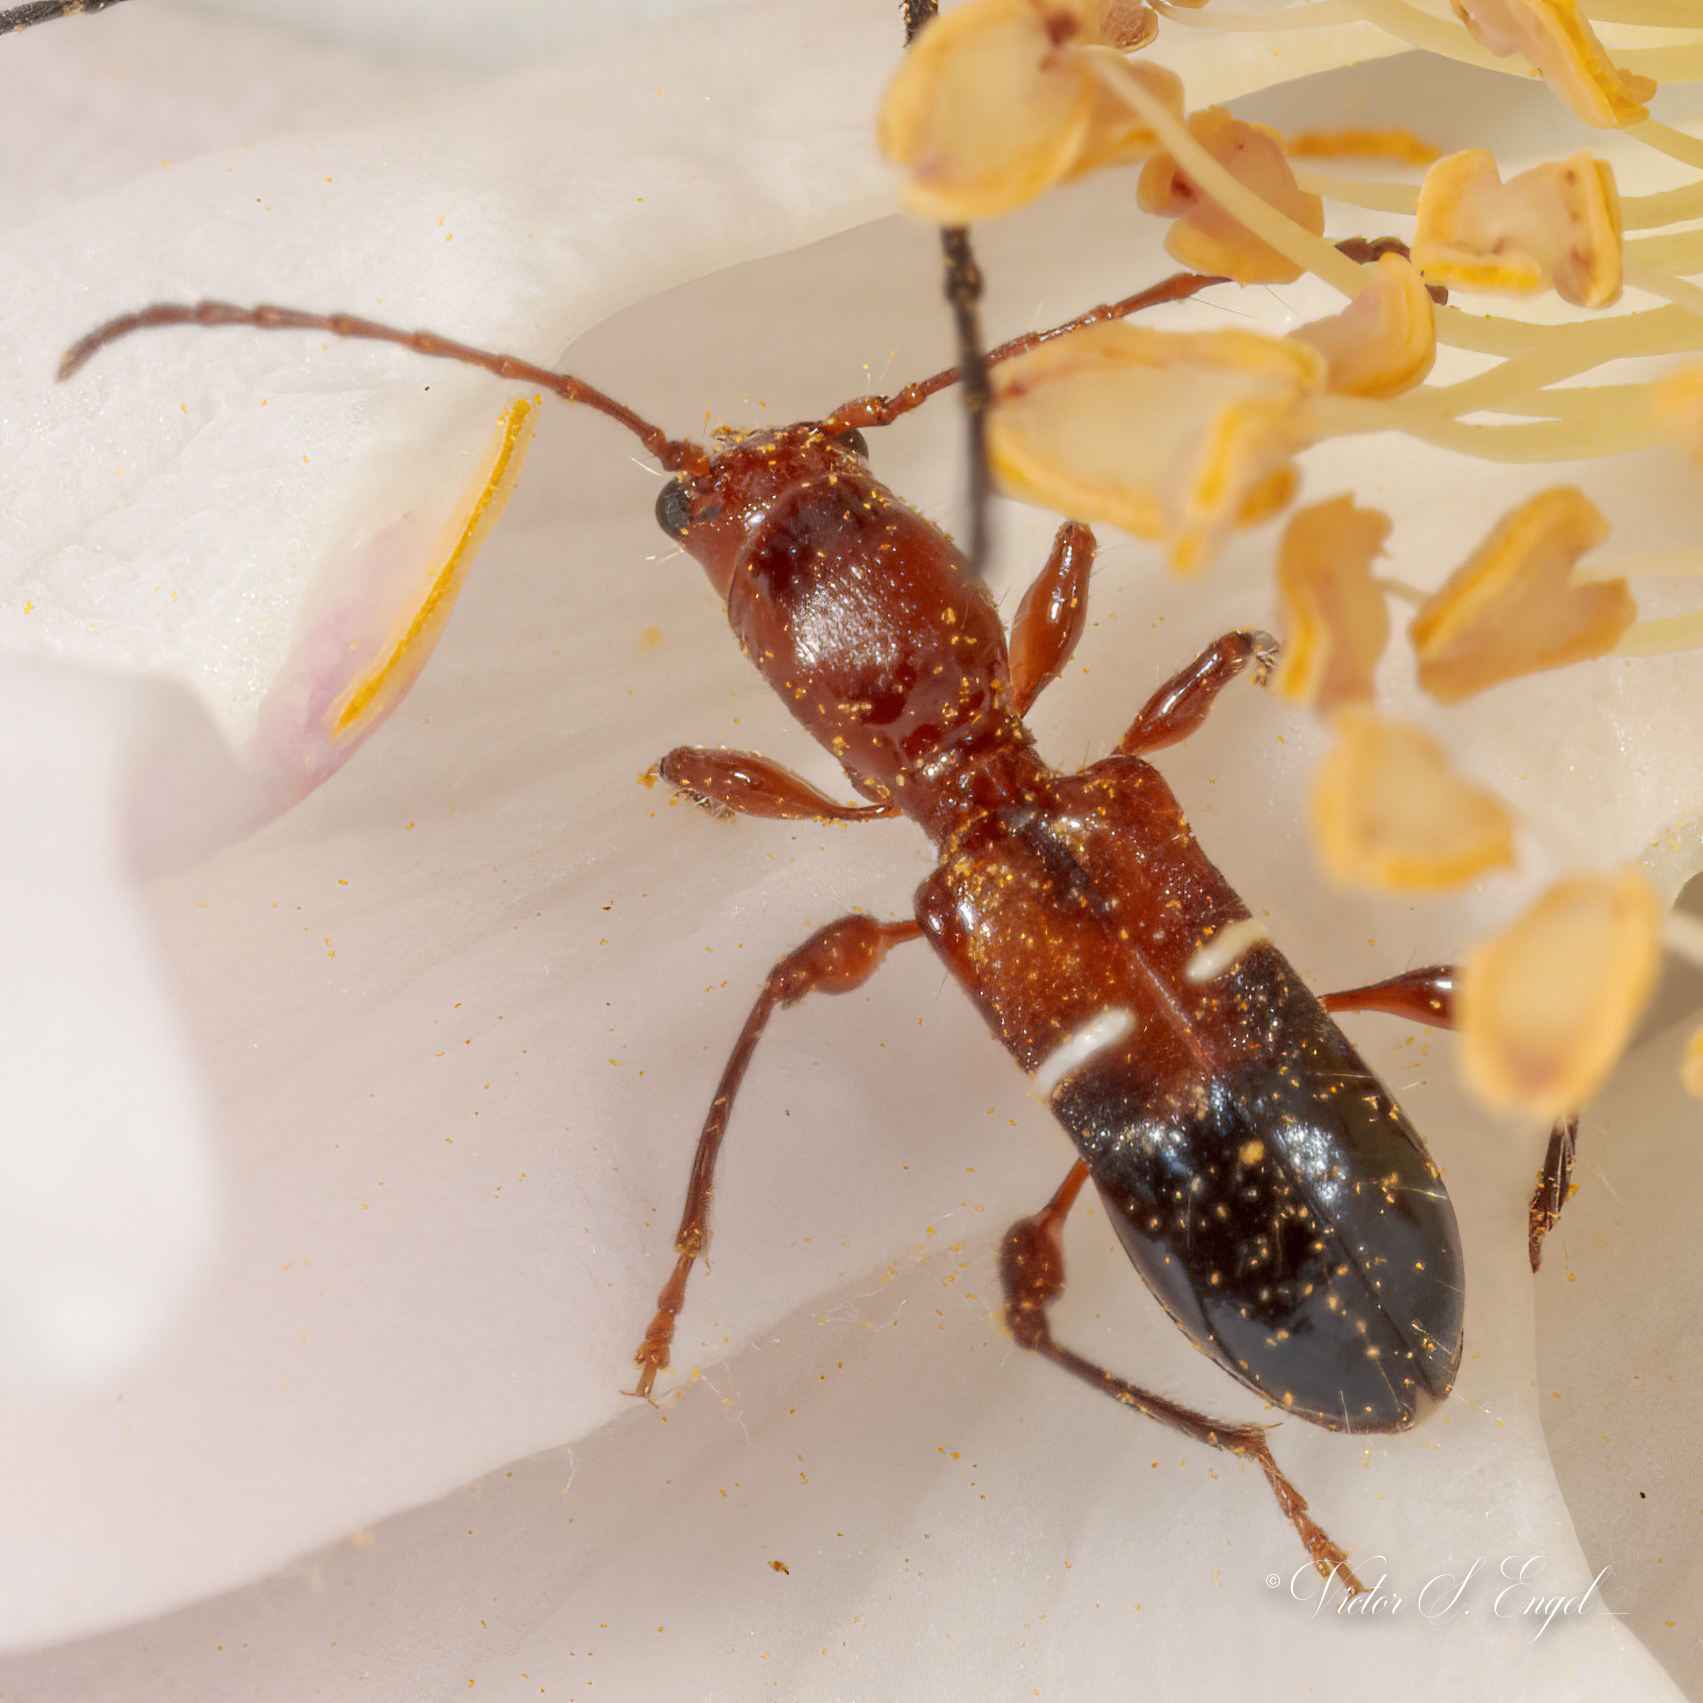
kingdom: Animalia
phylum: Arthropoda
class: Insecta
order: Coleoptera
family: Cerambycidae
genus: Euderces
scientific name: Euderces reichei
